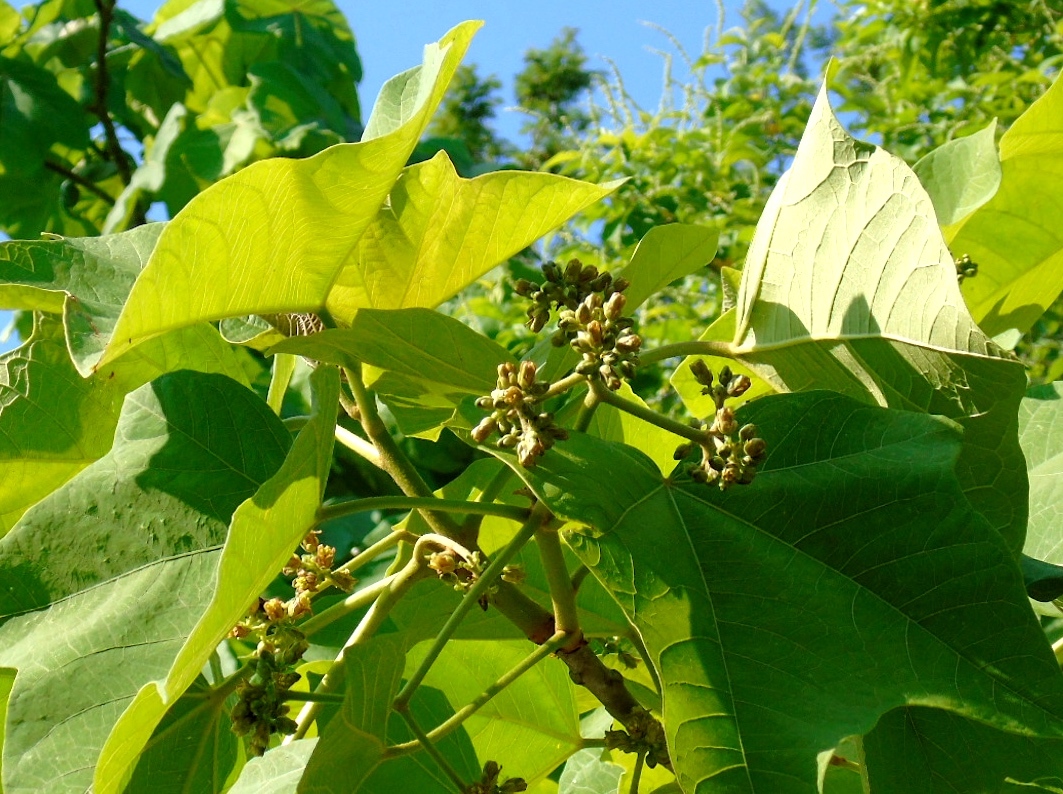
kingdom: Plantae
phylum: Tracheophyta
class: Magnoliopsida
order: Malpighiales
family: Euphorbiaceae
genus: Jatropha
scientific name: Jatropha curcas
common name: Barbados nut
